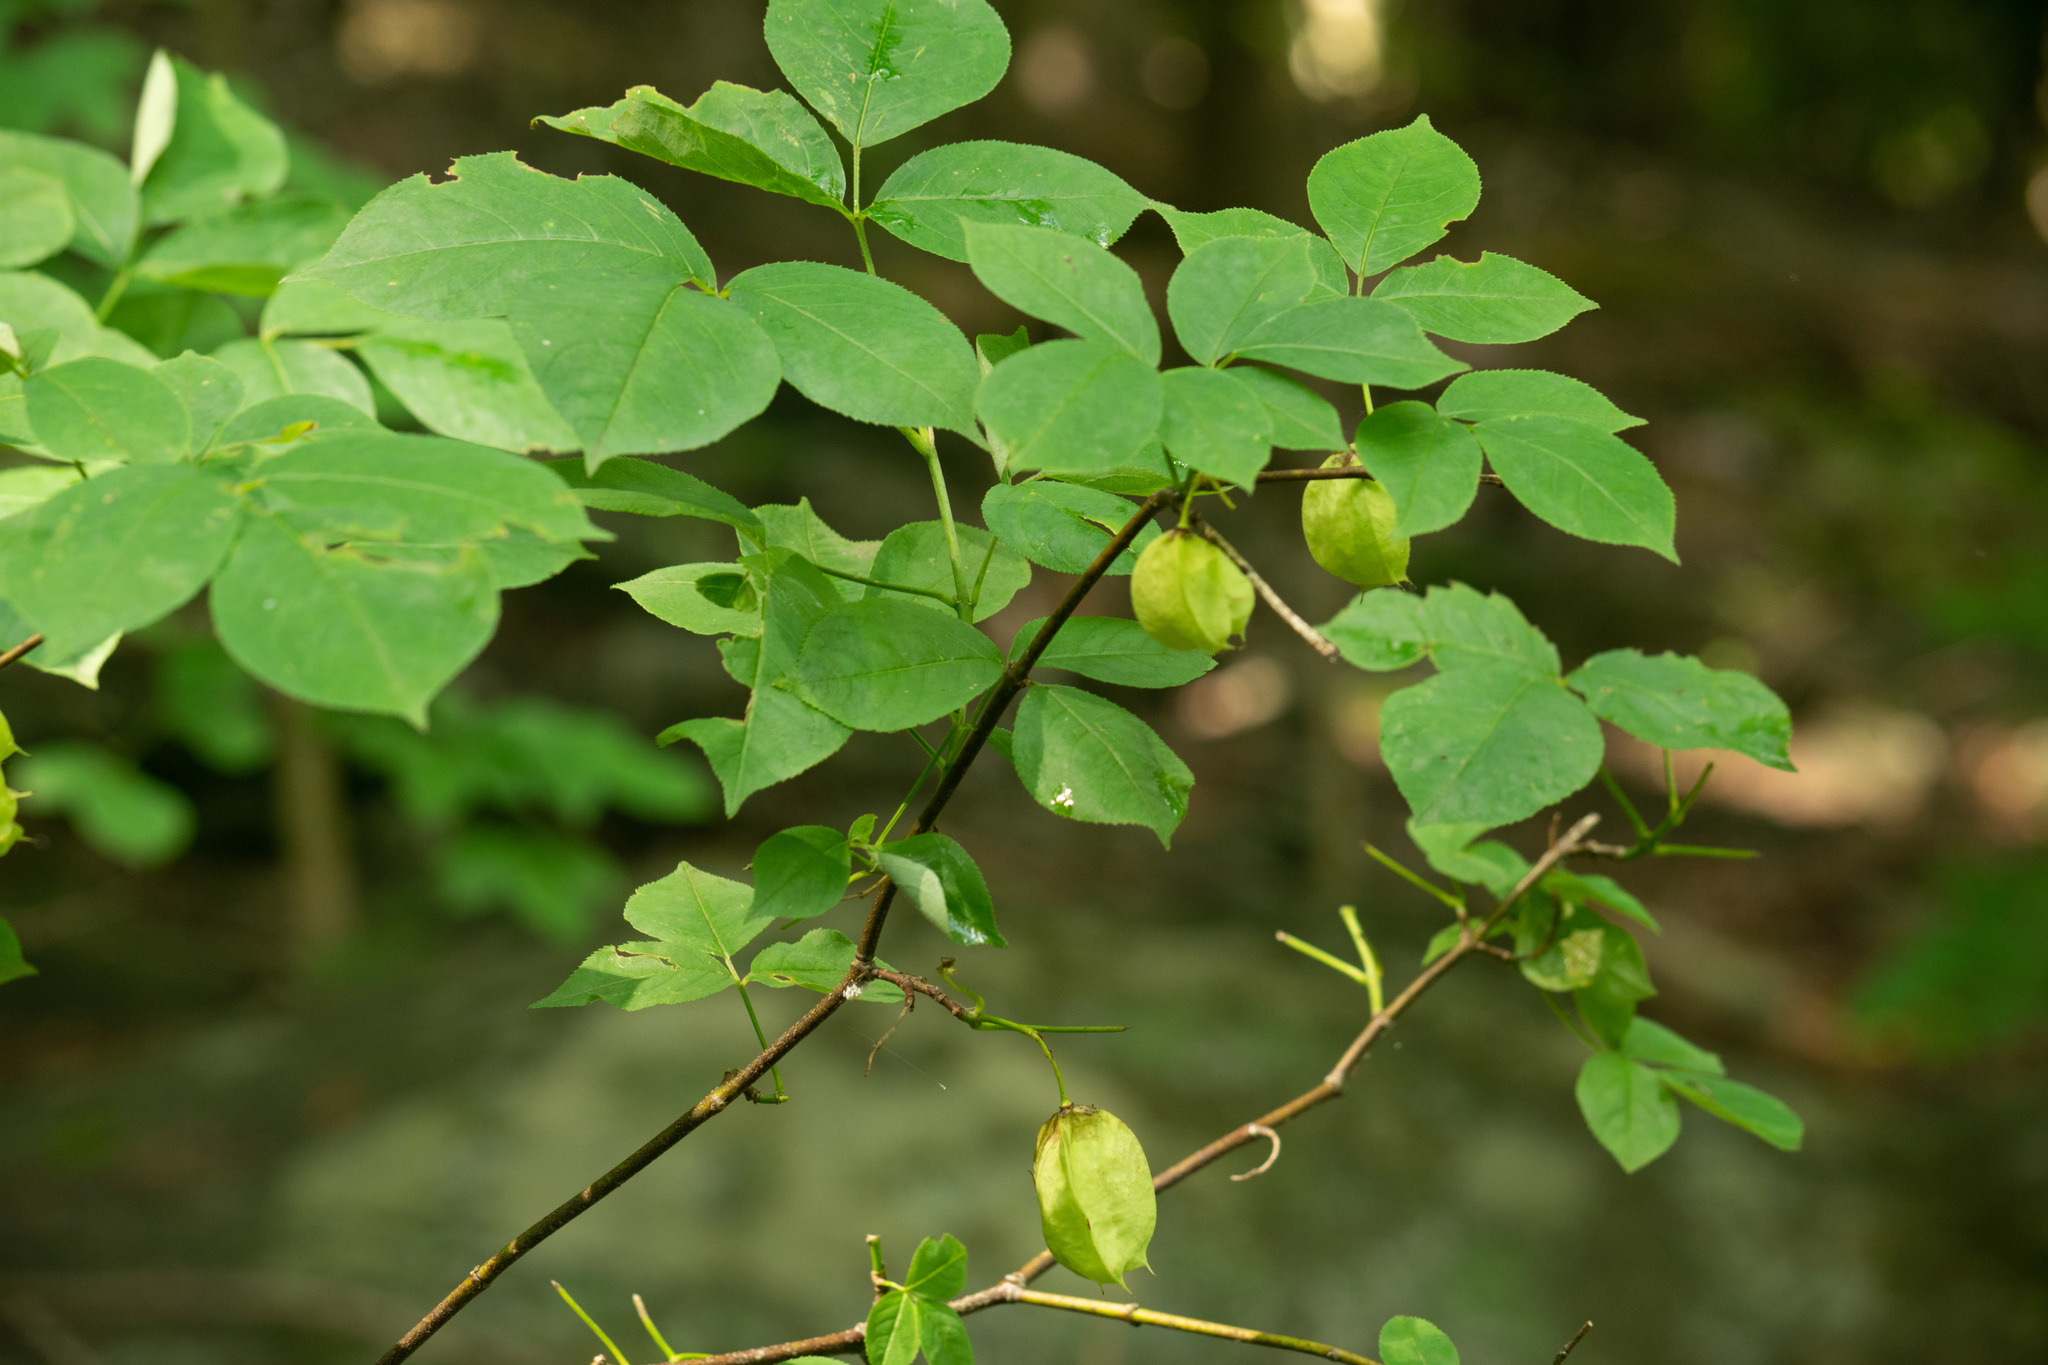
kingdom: Plantae
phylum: Tracheophyta
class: Magnoliopsida
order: Crossosomatales
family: Staphyleaceae
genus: Staphylea
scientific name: Staphylea trifolia
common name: American bladdernut
